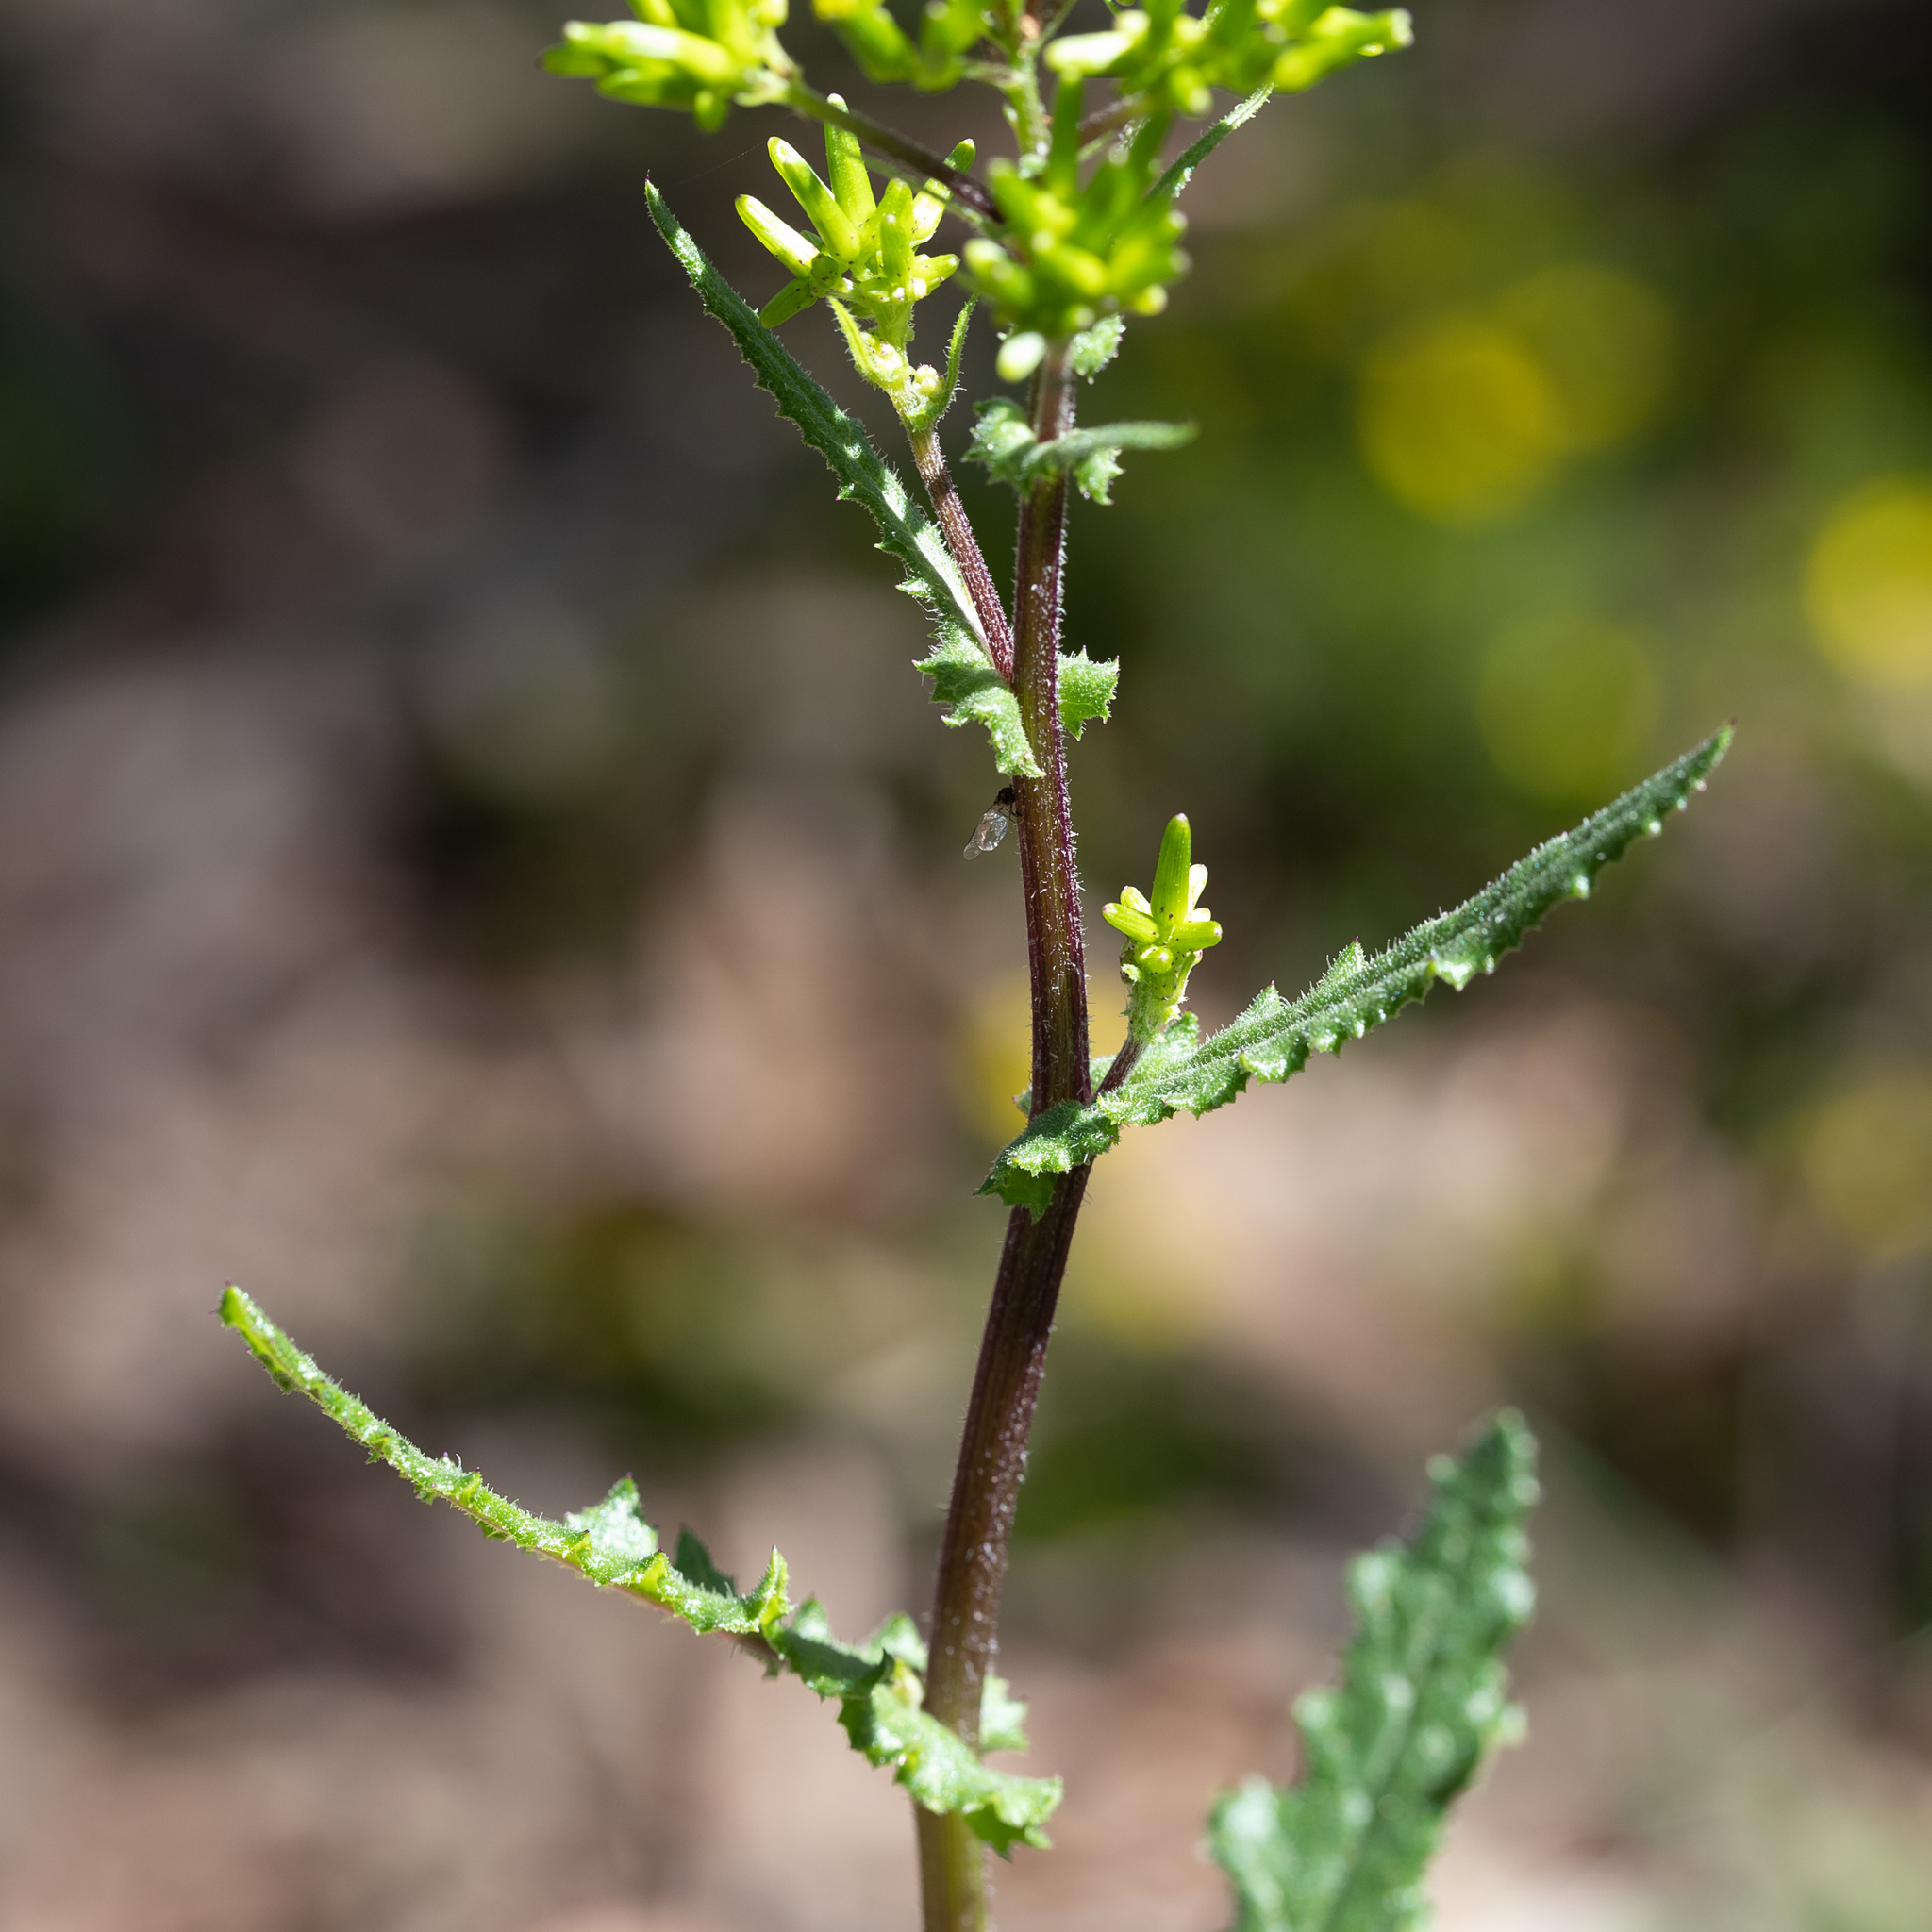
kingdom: Plantae
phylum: Tracheophyta
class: Magnoliopsida
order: Asterales
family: Asteraceae
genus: Senecio
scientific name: Senecio picridioides
